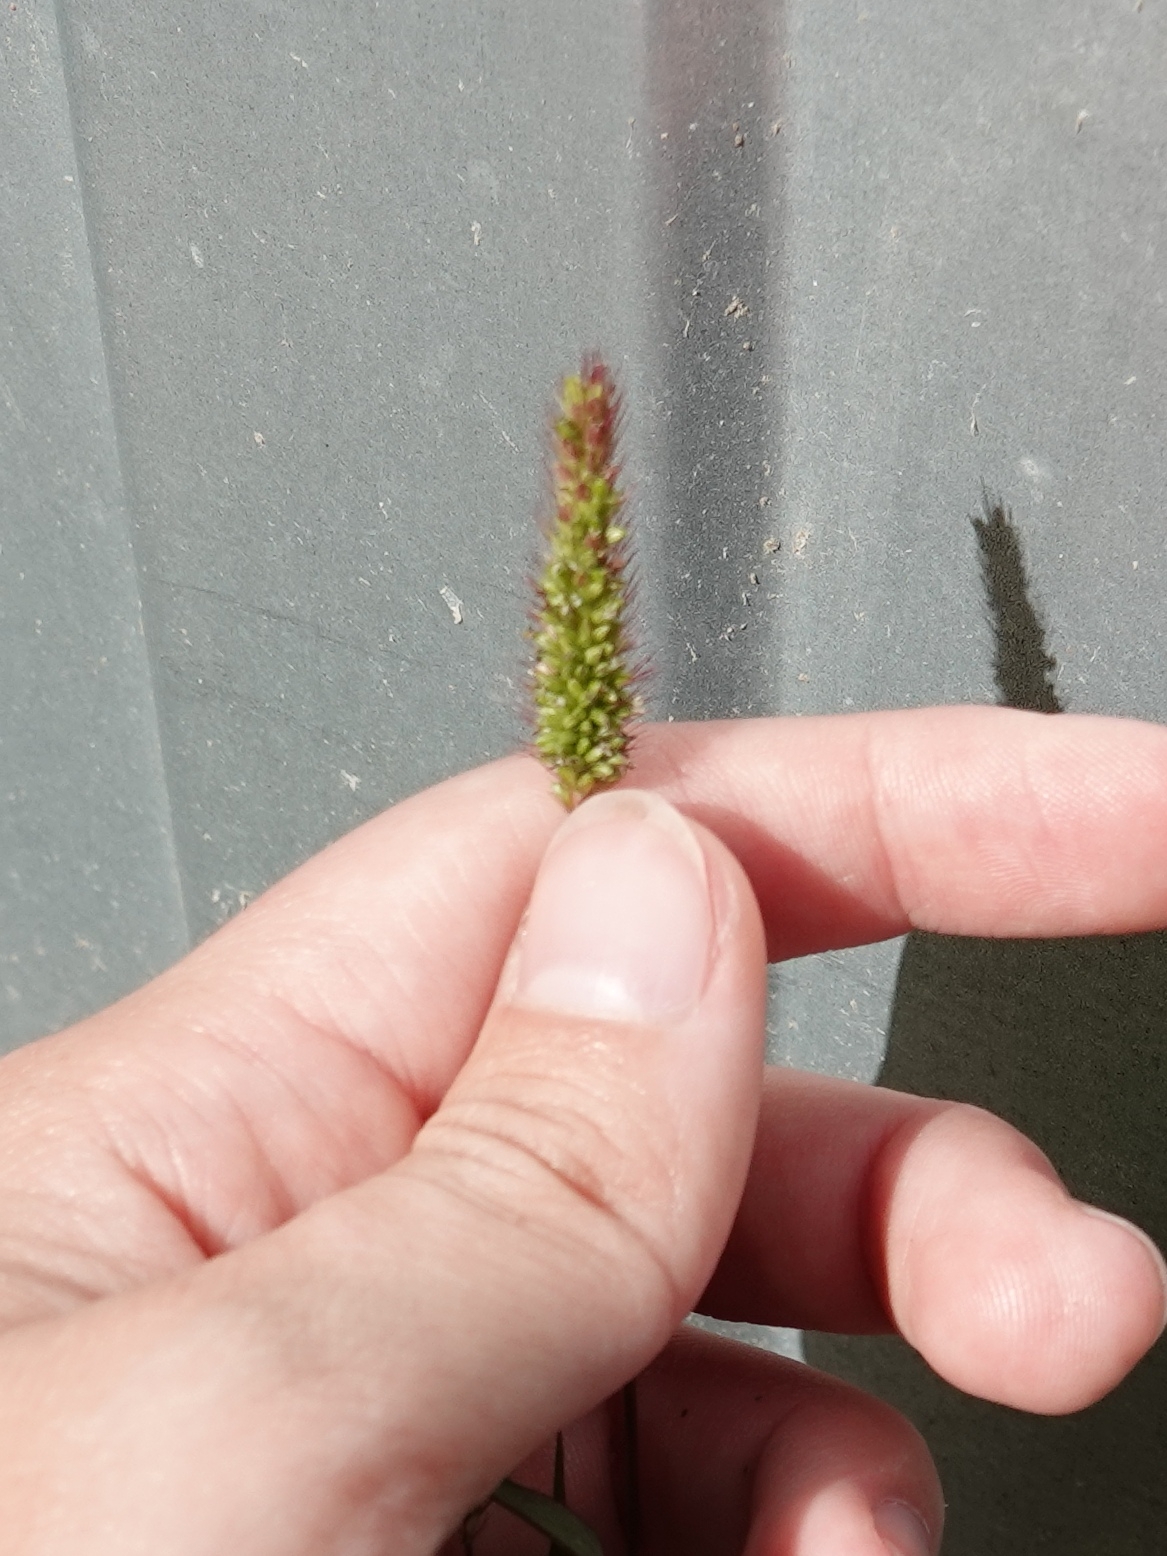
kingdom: Plantae
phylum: Tracheophyta
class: Liliopsida
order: Poales
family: Poaceae
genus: Setaria
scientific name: Setaria viridis
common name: Green bristlegrass
